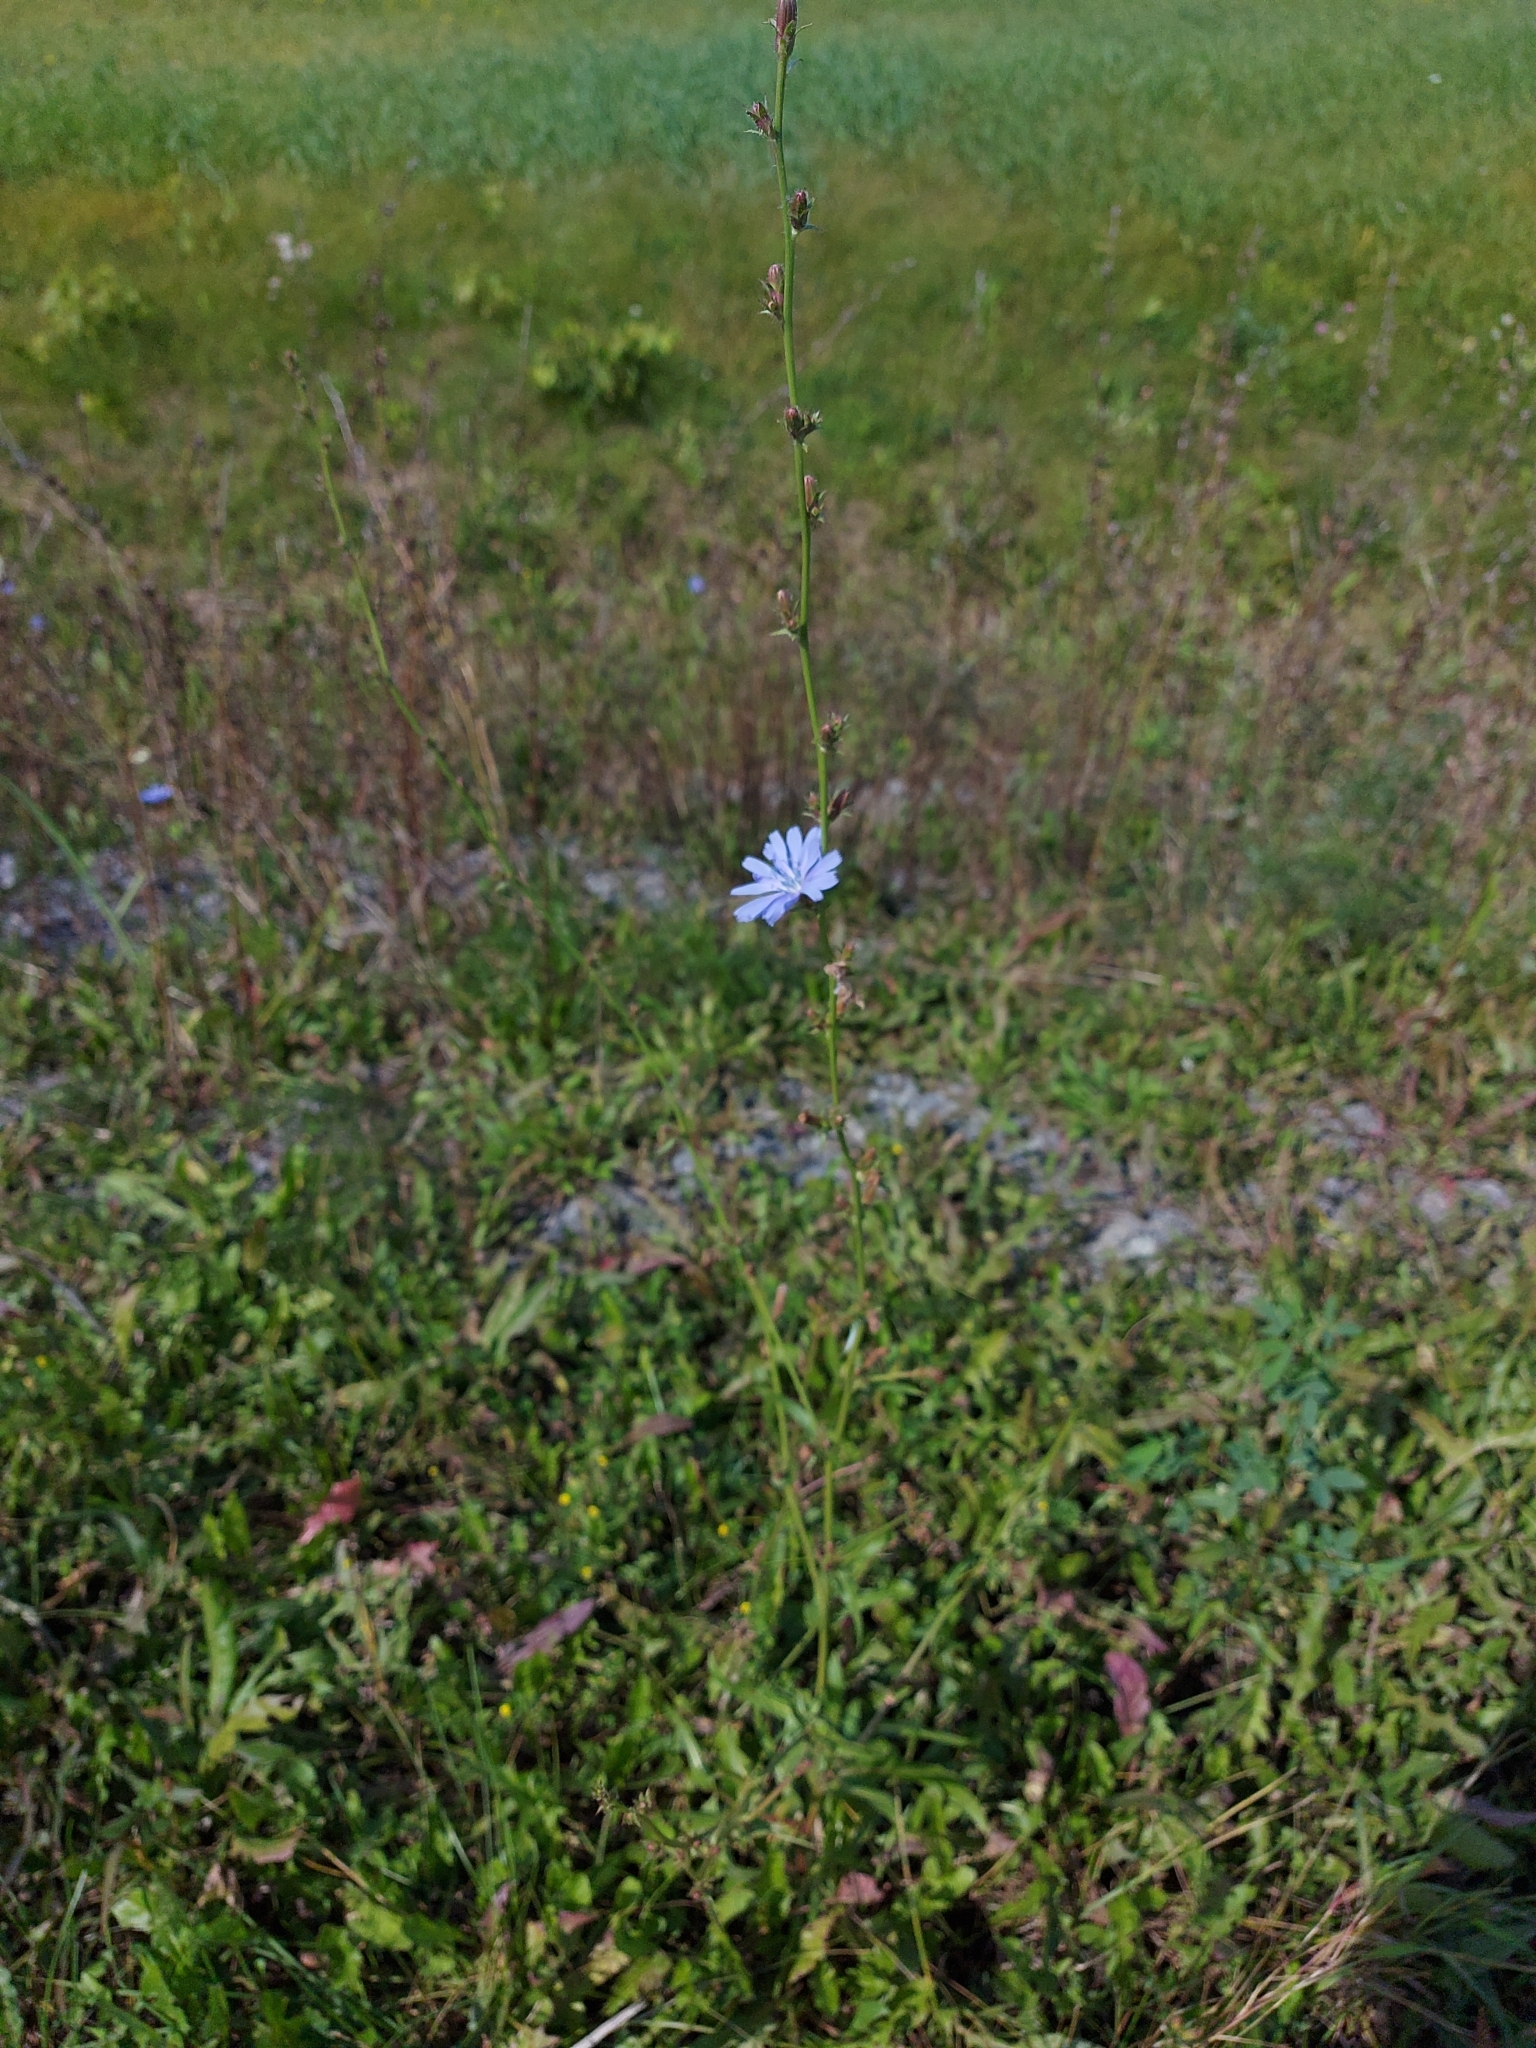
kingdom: Plantae
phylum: Tracheophyta
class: Magnoliopsida
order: Asterales
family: Asteraceae
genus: Cichorium
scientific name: Cichorium intybus
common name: Chicory
